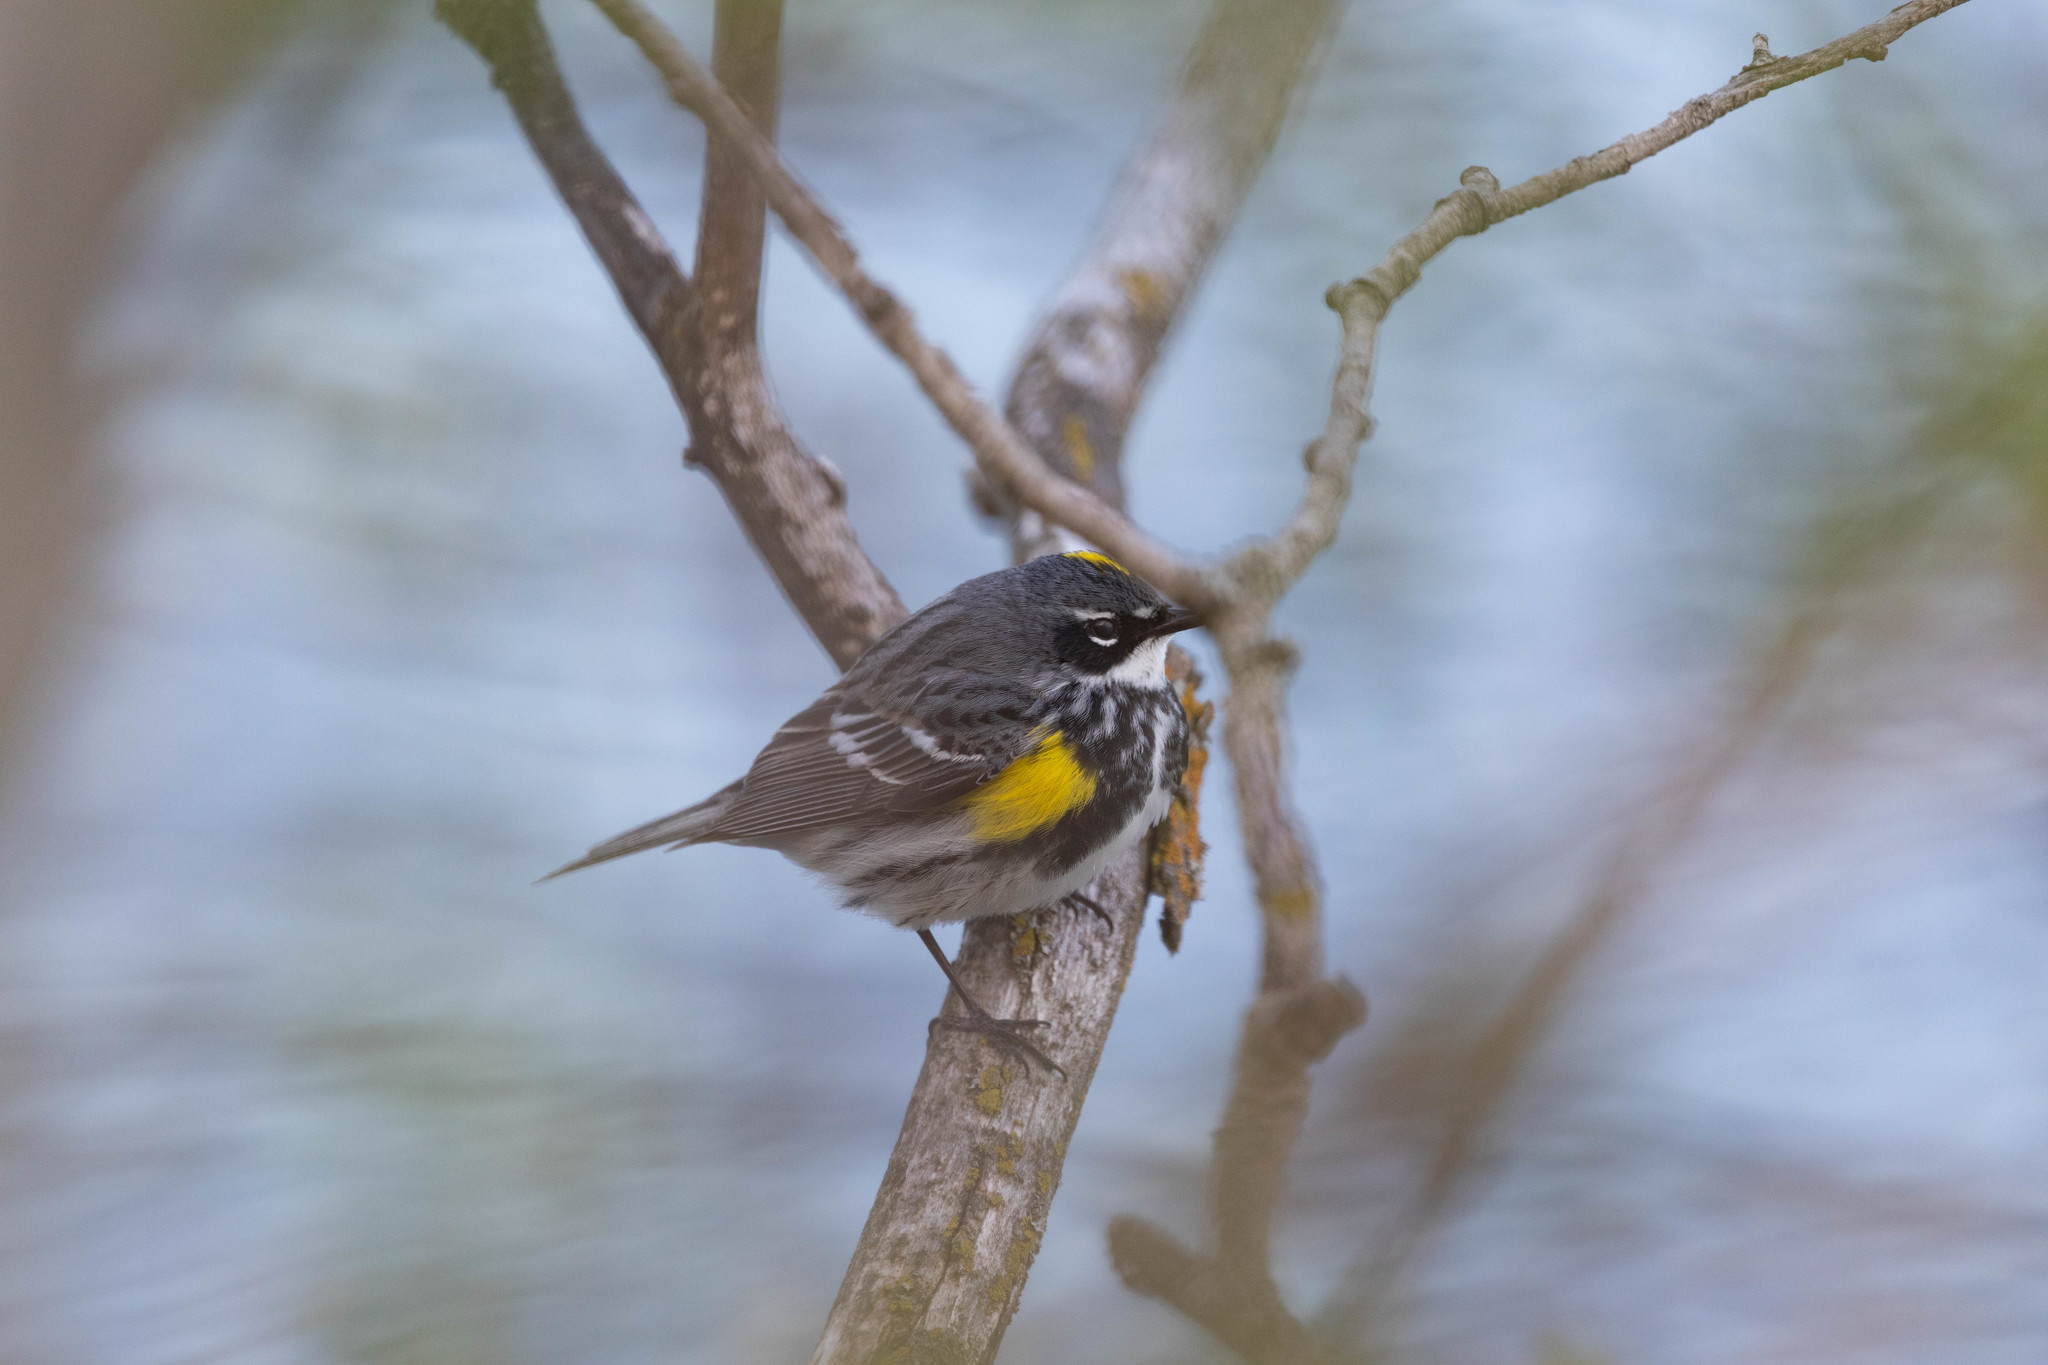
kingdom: Animalia
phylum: Chordata
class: Aves
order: Passeriformes
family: Parulidae
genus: Setophaga
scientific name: Setophaga coronata
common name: Myrtle warbler
